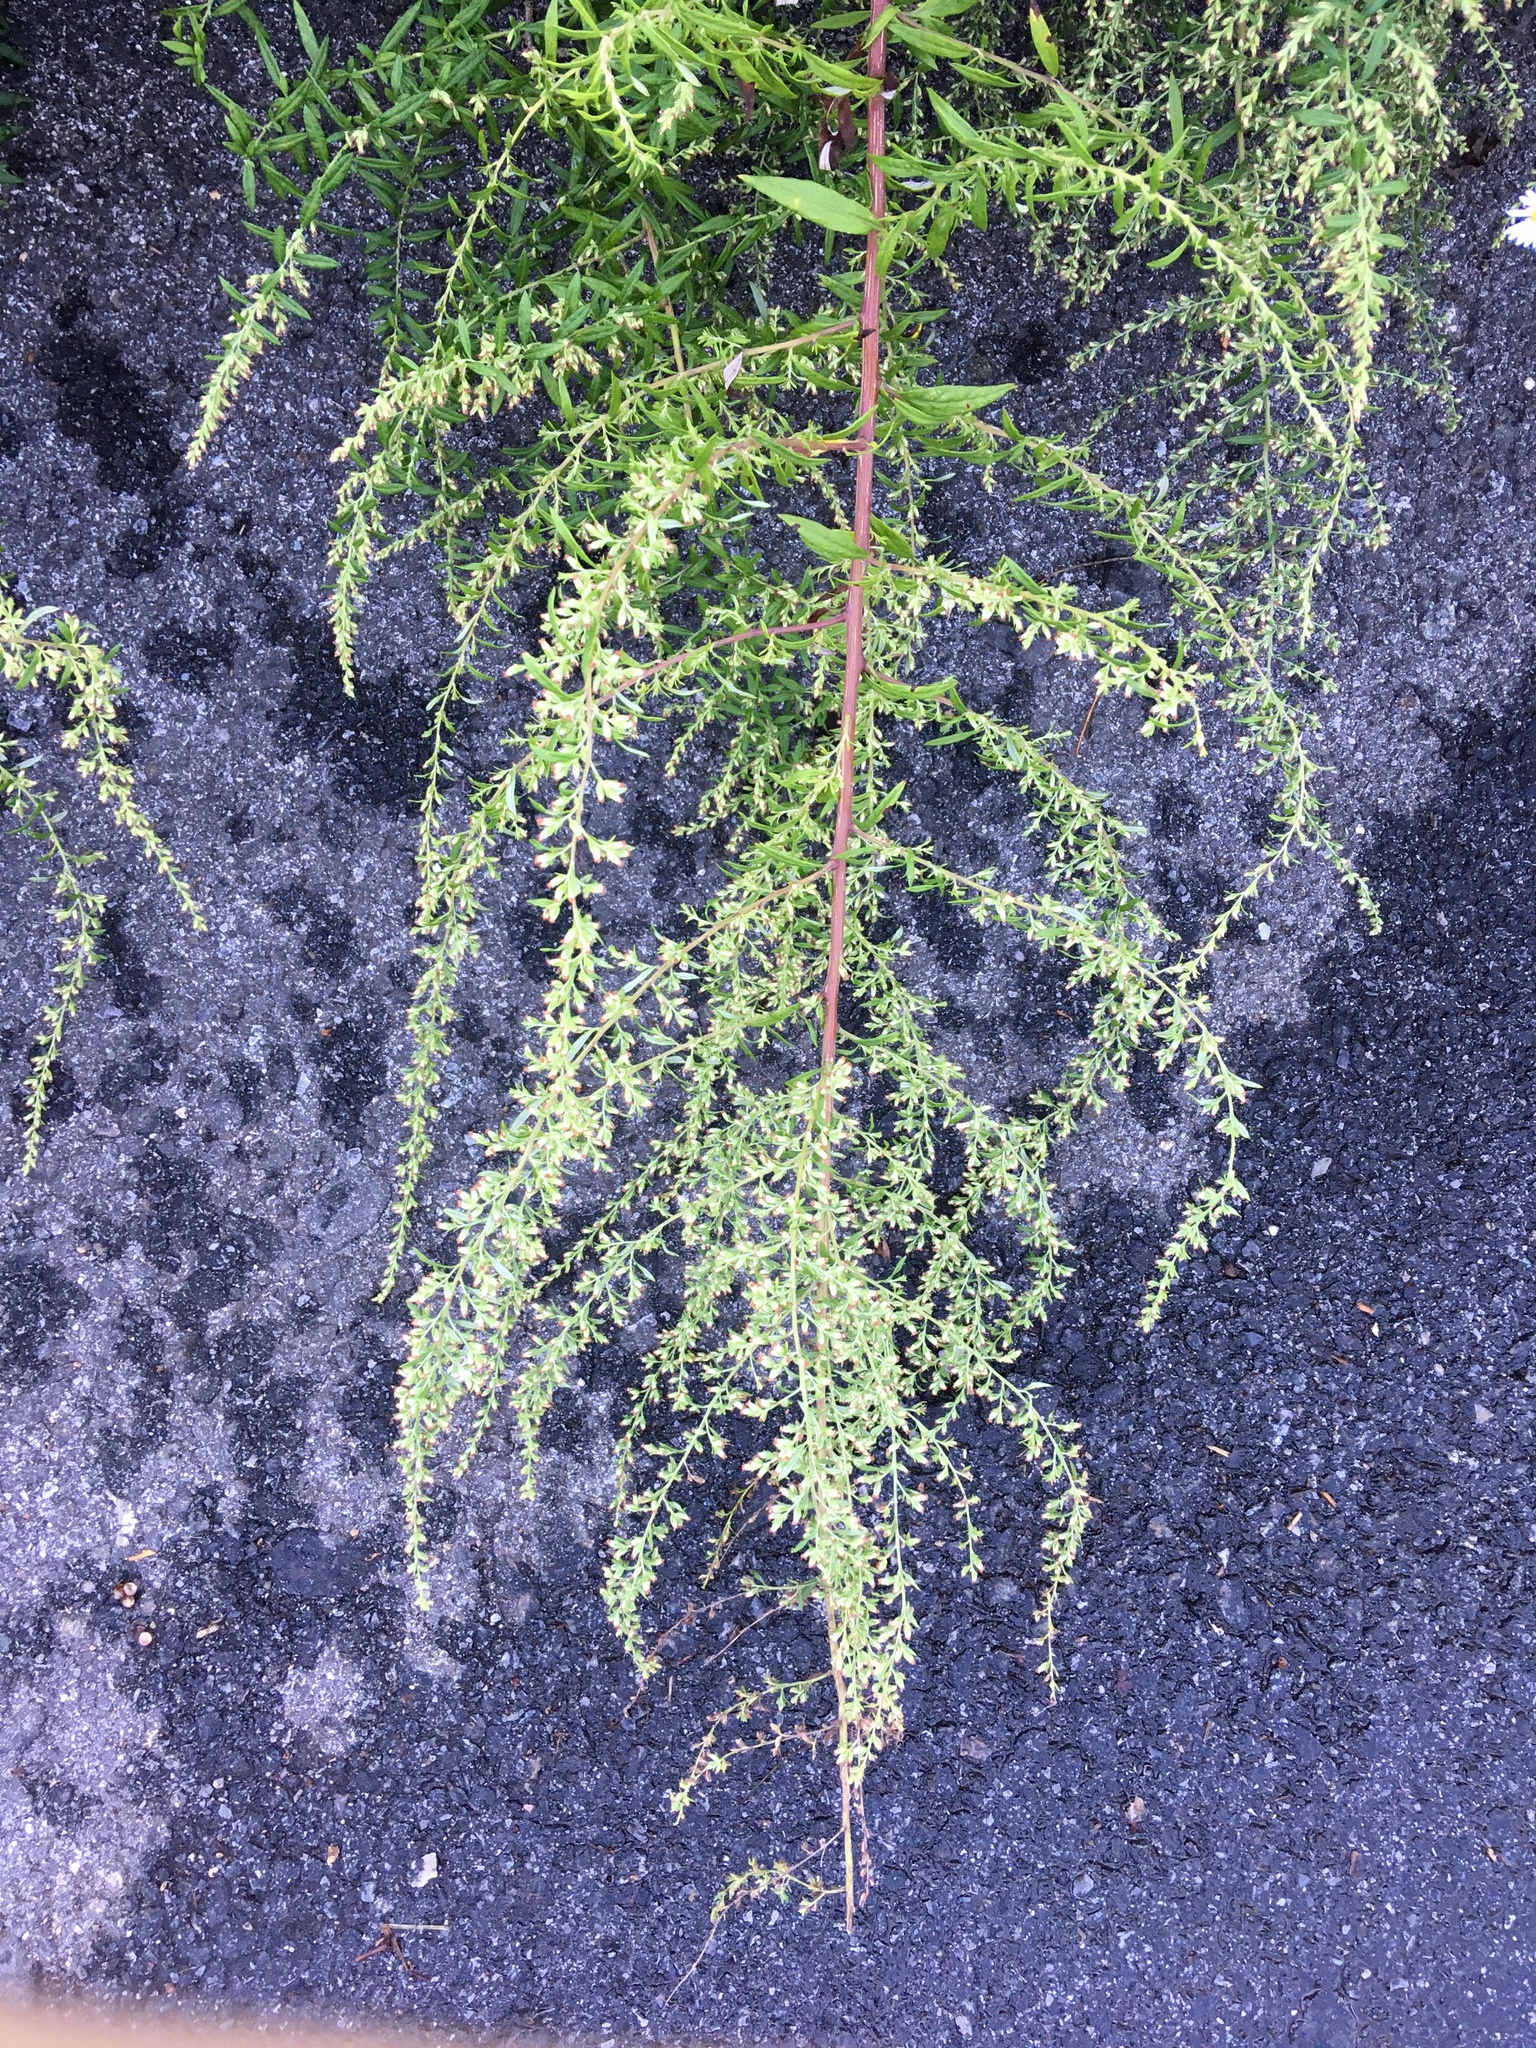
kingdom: Plantae
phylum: Tracheophyta
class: Magnoliopsida
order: Asterales
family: Asteraceae
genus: Artemisia
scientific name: Artemisia vulgaris
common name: Mugwort
